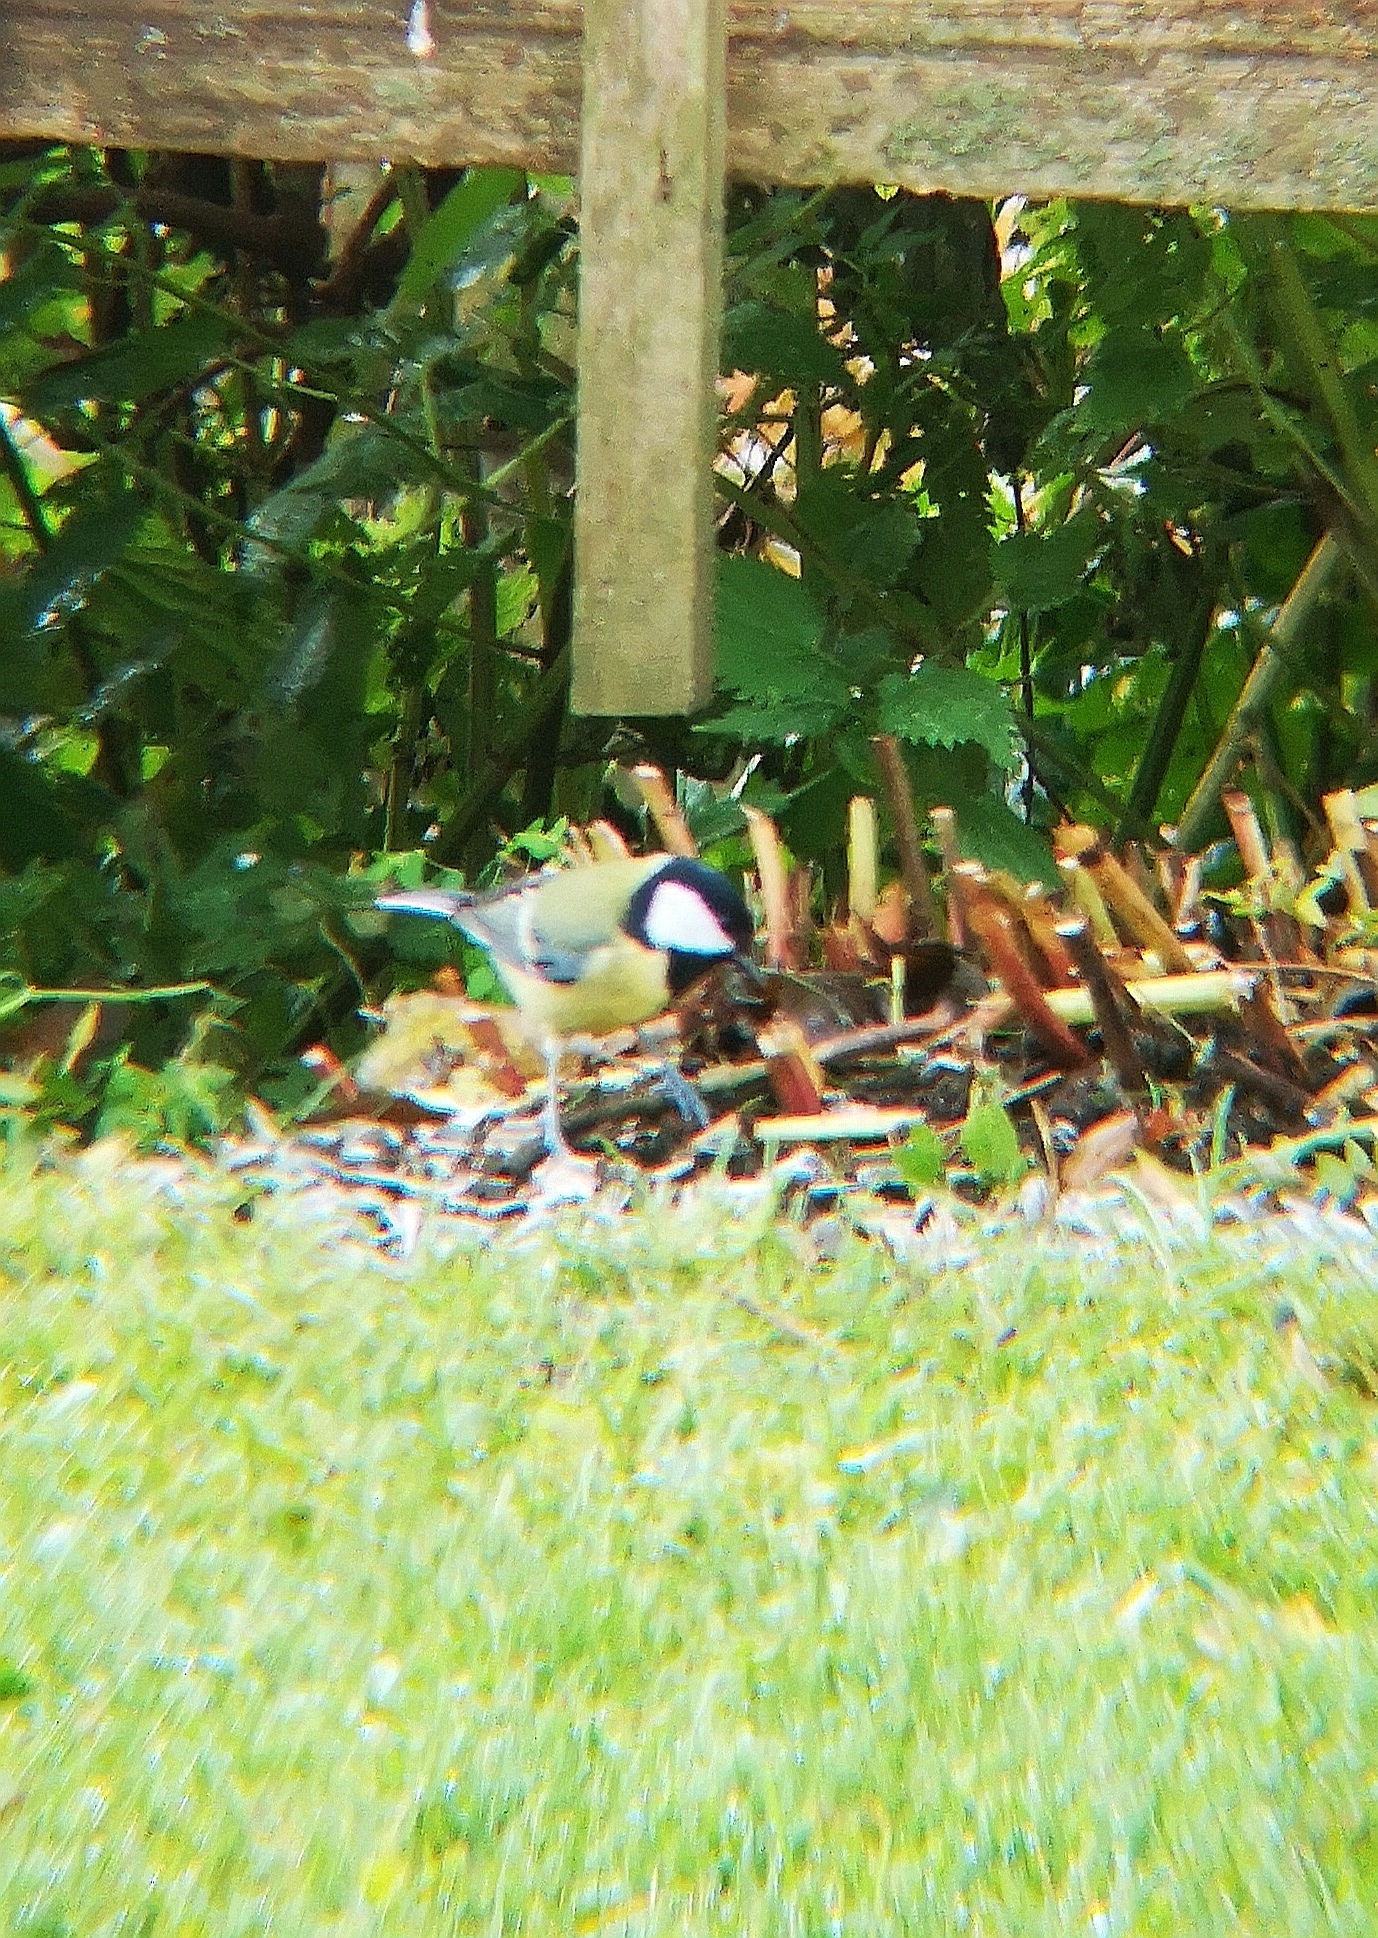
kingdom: Animalia
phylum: Chordata
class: Aves
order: Passeriformes
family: Paridae
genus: Parus
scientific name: Parus major
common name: Great tit
